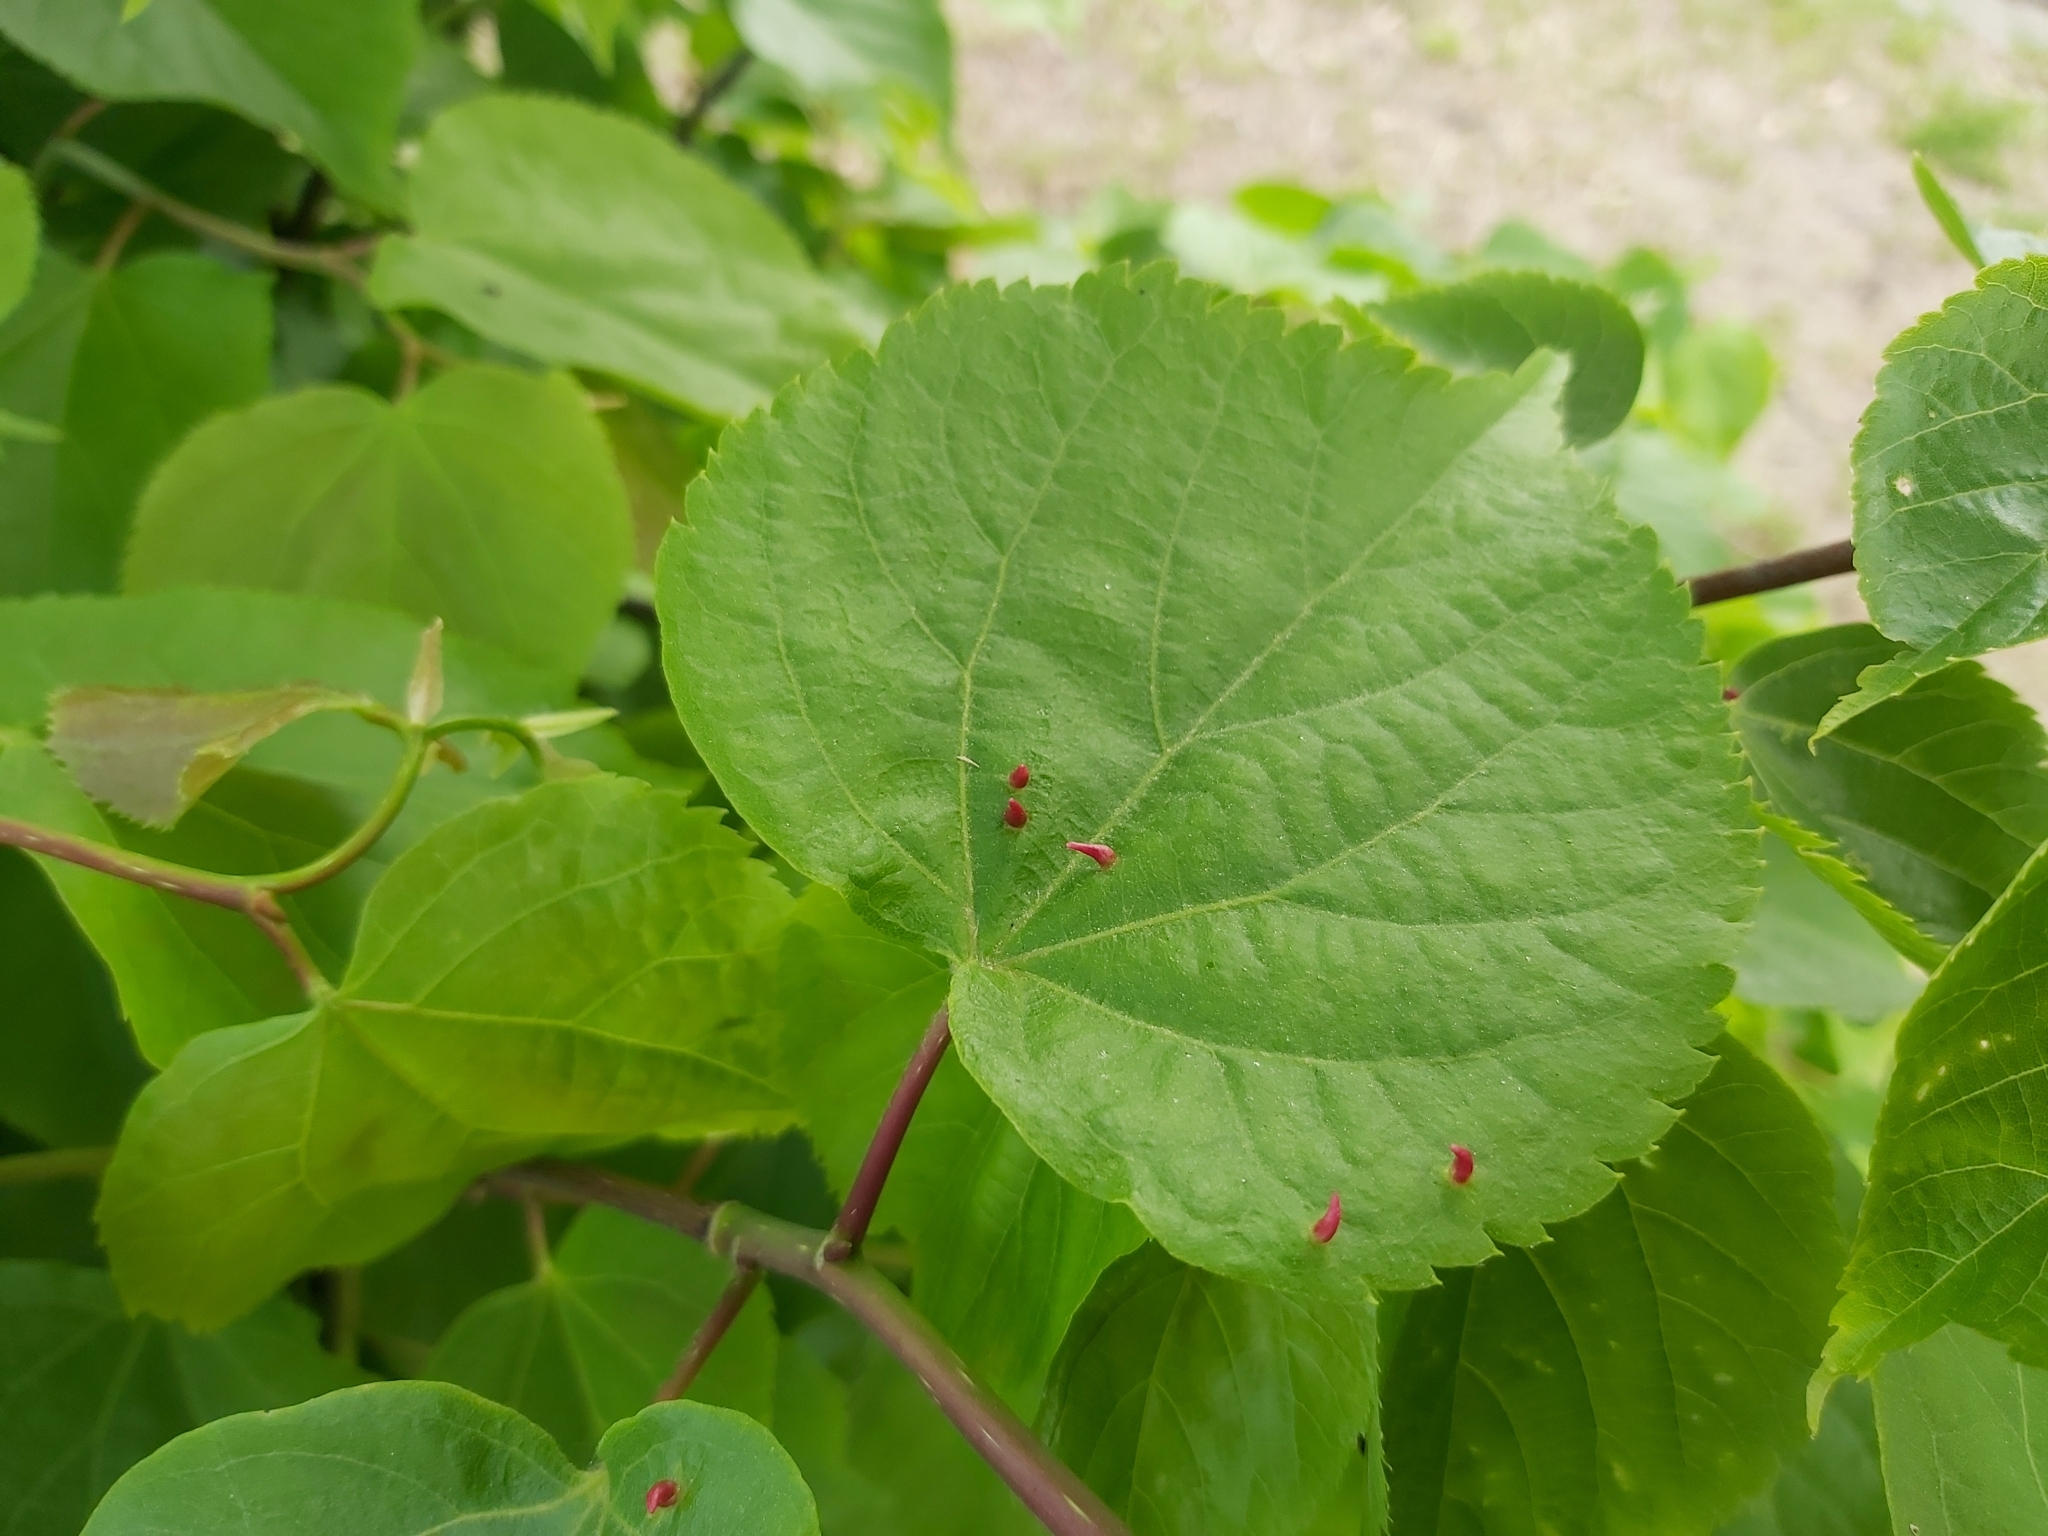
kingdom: Animalia
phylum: Arthropoda
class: Arachnida
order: Trombidiformes
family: Eriophyidae
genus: Eriophyes
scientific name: Eriophyes tiliae
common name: Red nail gall mite
